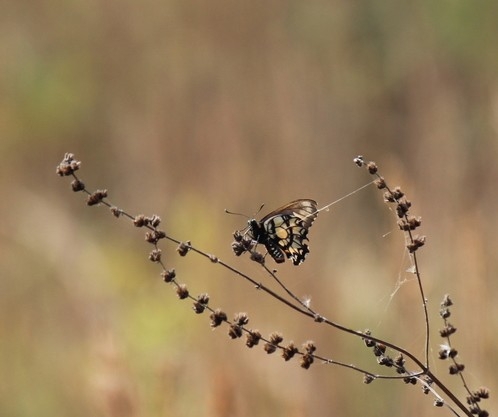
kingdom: Animalia
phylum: Arthropoda
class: Insecta
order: Lepidoptera
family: Papilionidae
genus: Euryades
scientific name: Euryades corethrus
